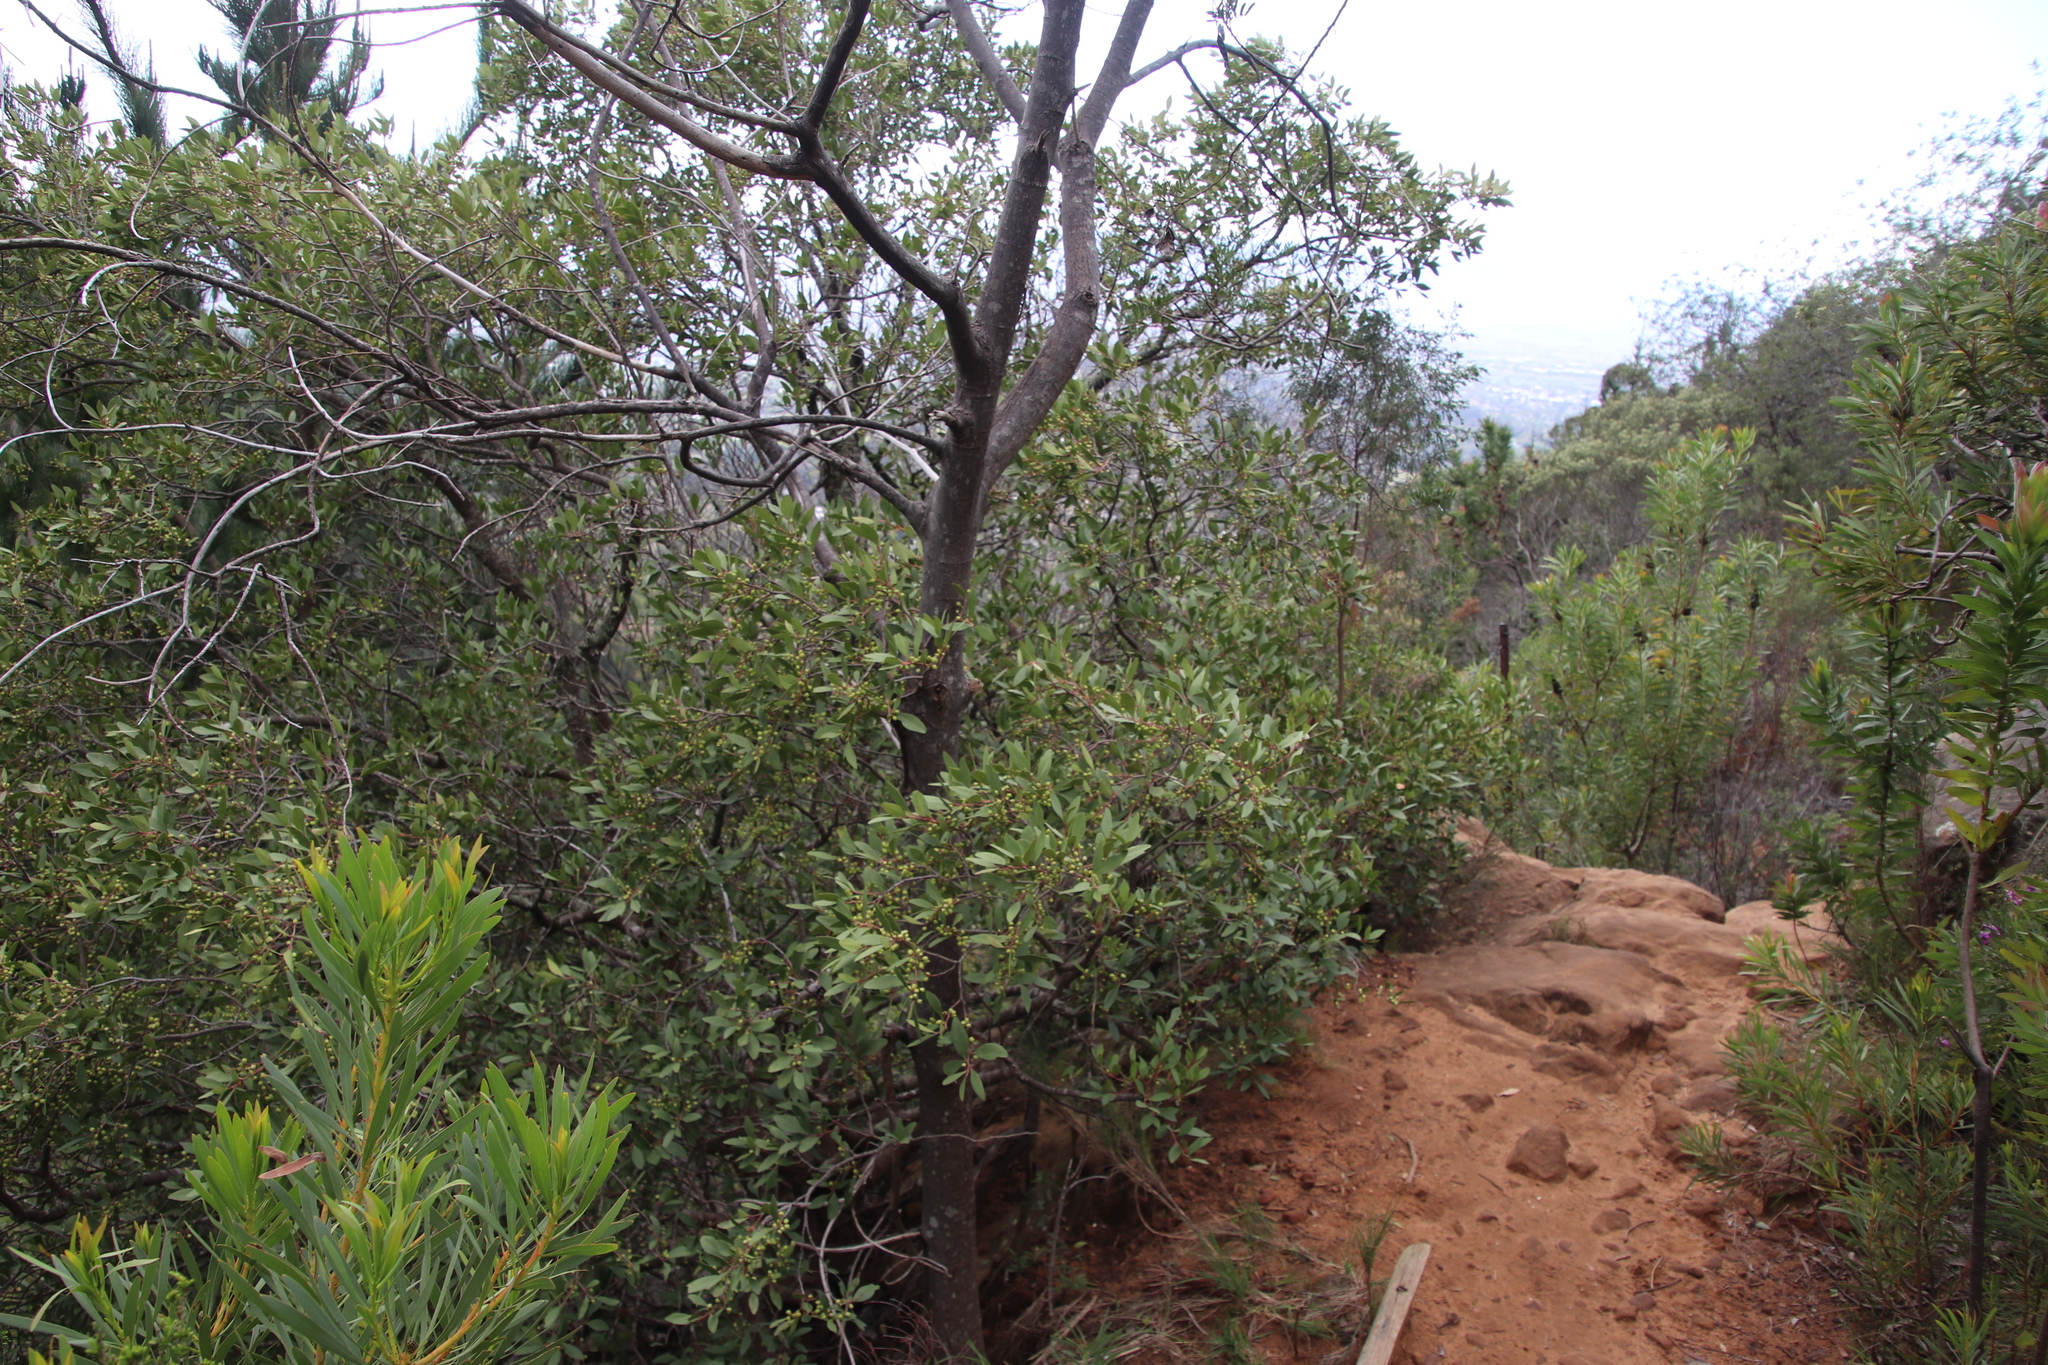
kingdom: Plantae
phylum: Tracheophyta
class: Magnoliopsida
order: Celastrales
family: Celastraceae
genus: Gymnosporia
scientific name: Gymnosporia laurina
